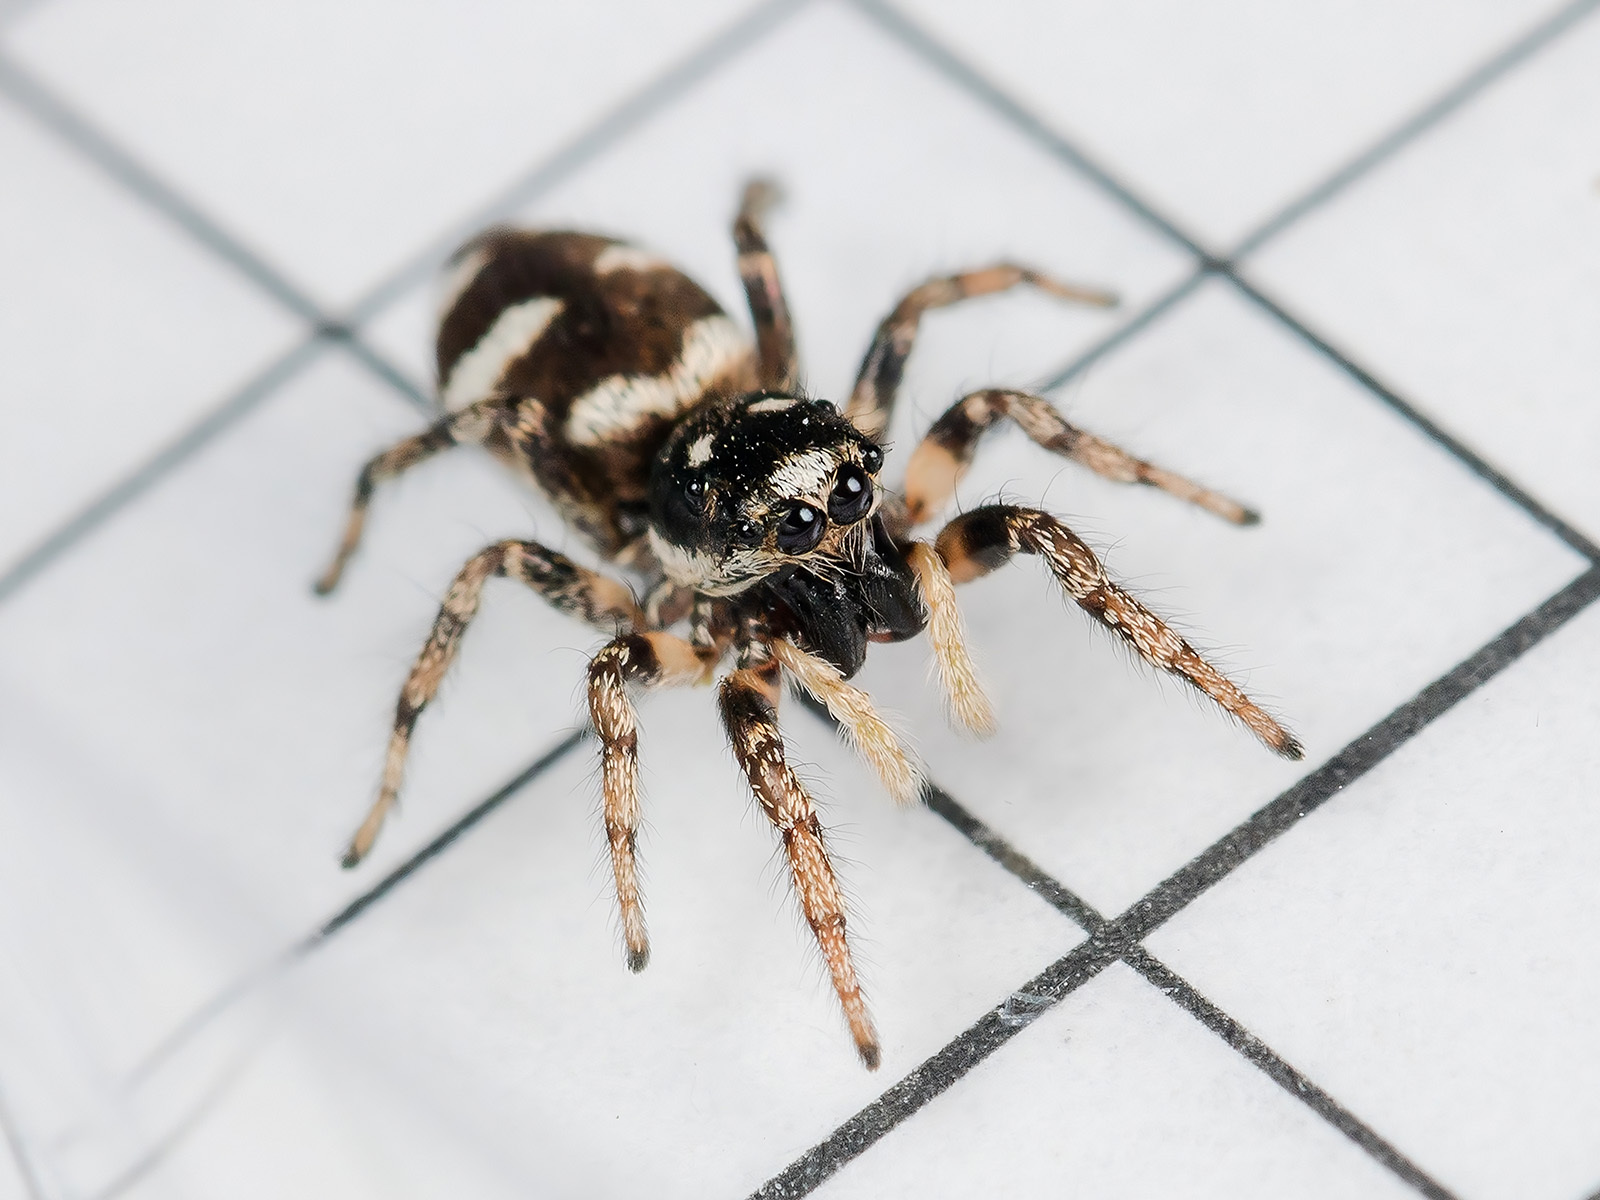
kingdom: Animalia
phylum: Arthropoda
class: Arachnida
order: Araneae
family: Salticidae
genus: Salticus
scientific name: Salticus scenicus
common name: Zebra jumper
